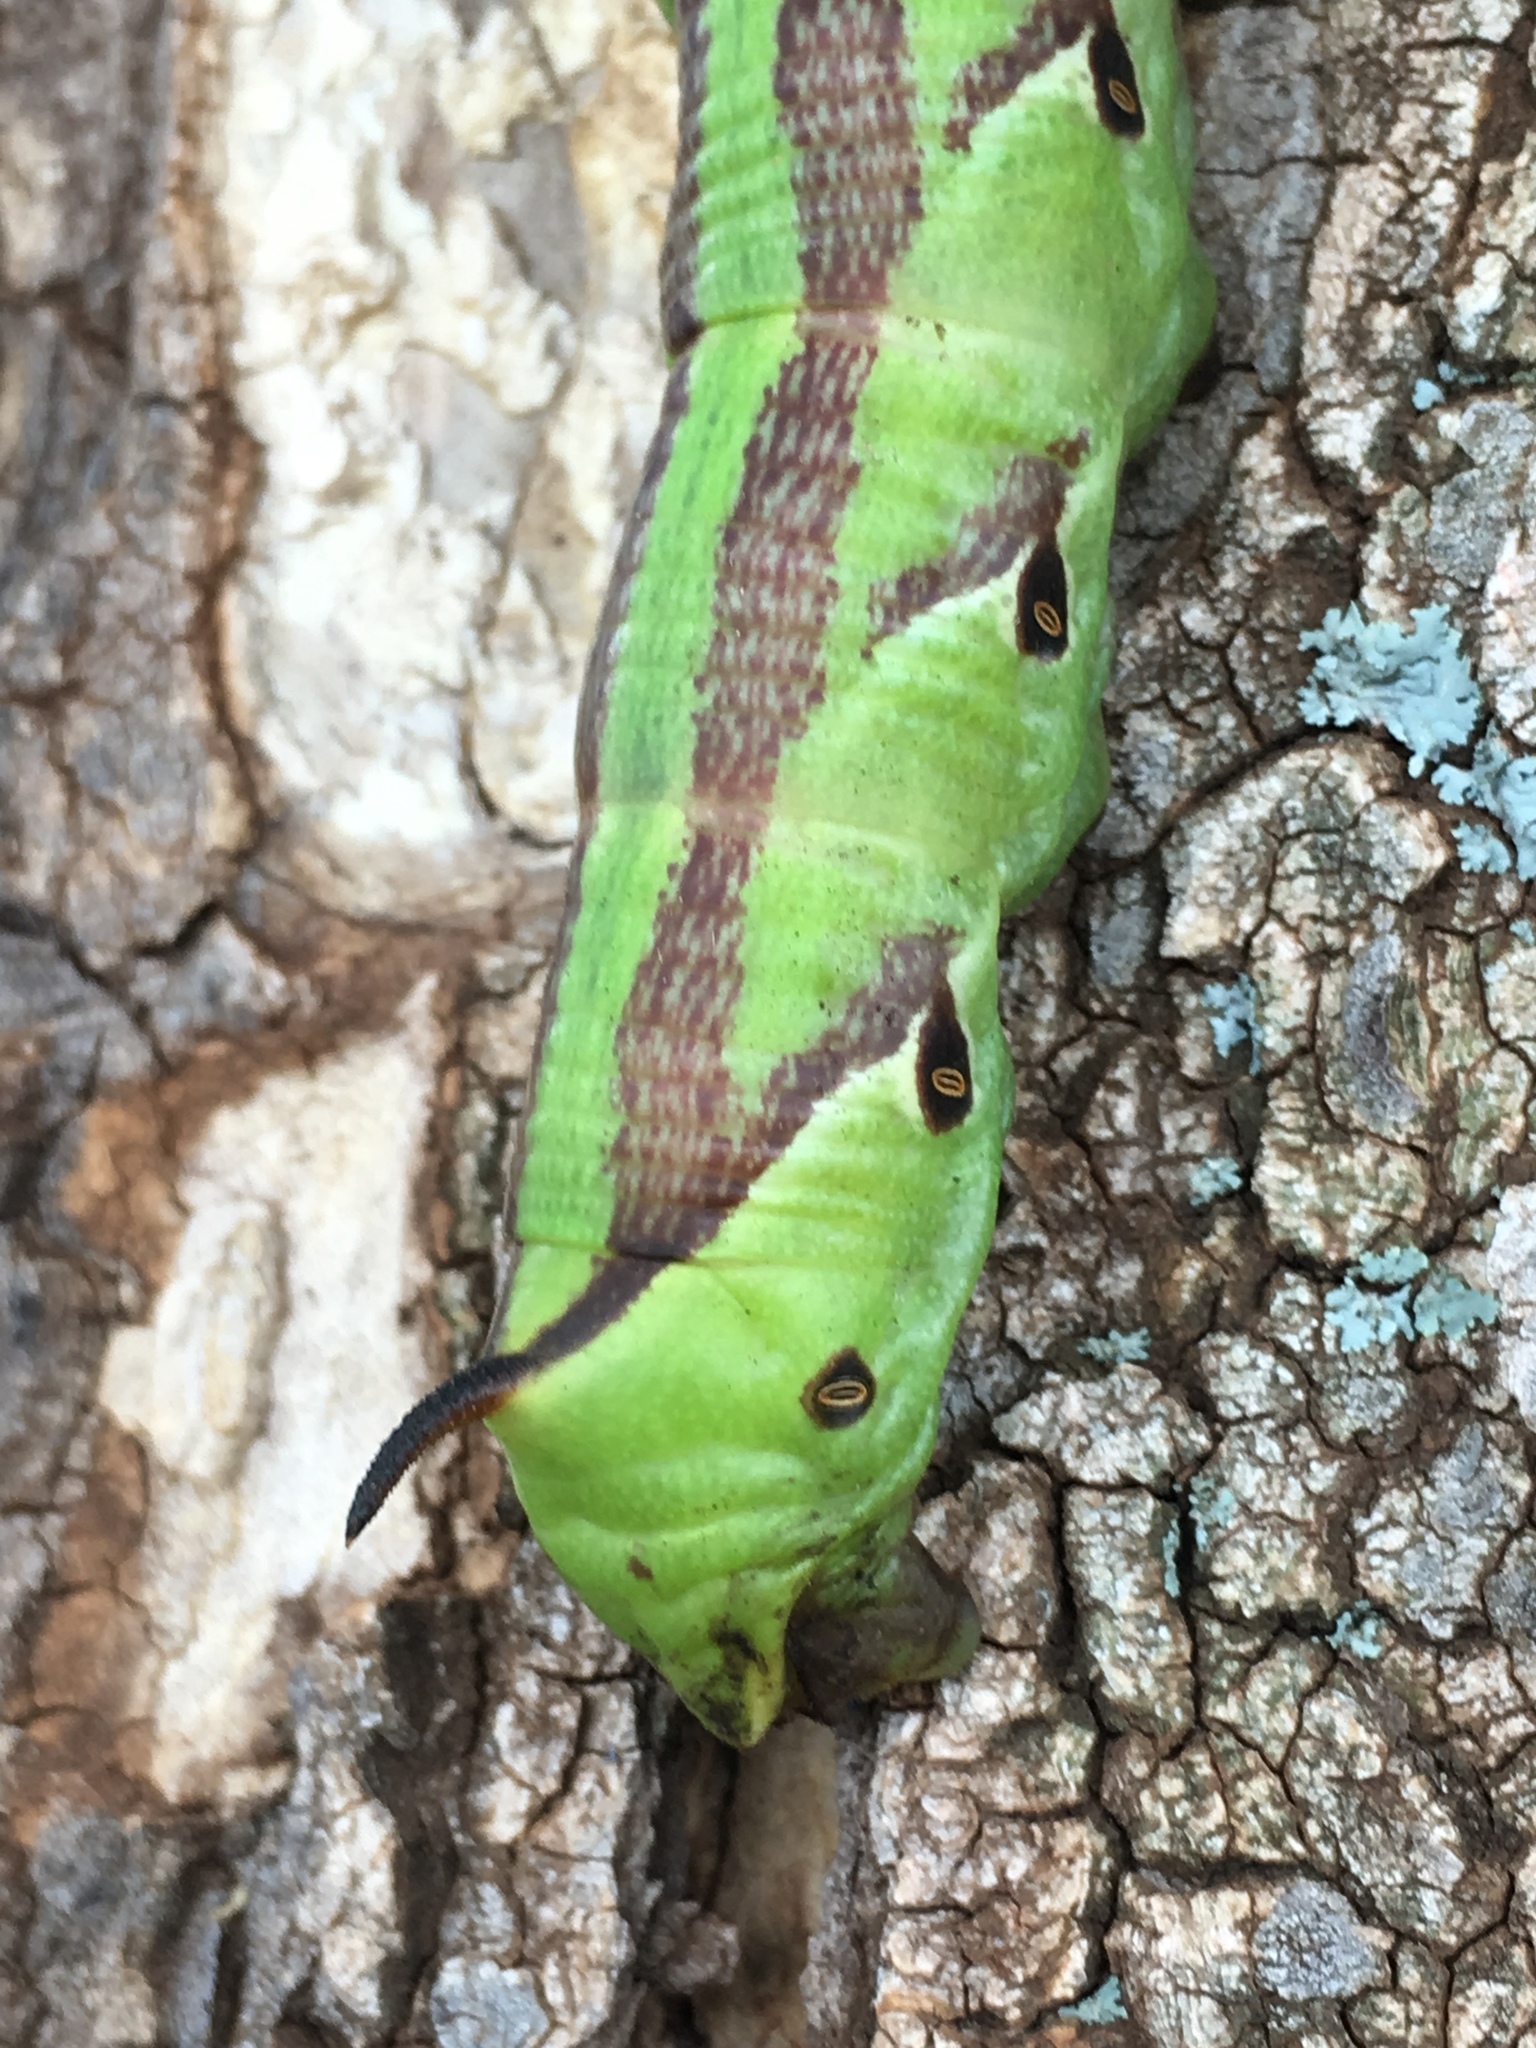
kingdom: Animalia
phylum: Arthropoda
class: Insecta
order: Lepidoptera
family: Sphingidae
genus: Agrius
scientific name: Agrius cingulata
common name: Pink-spotted hawkmoth
